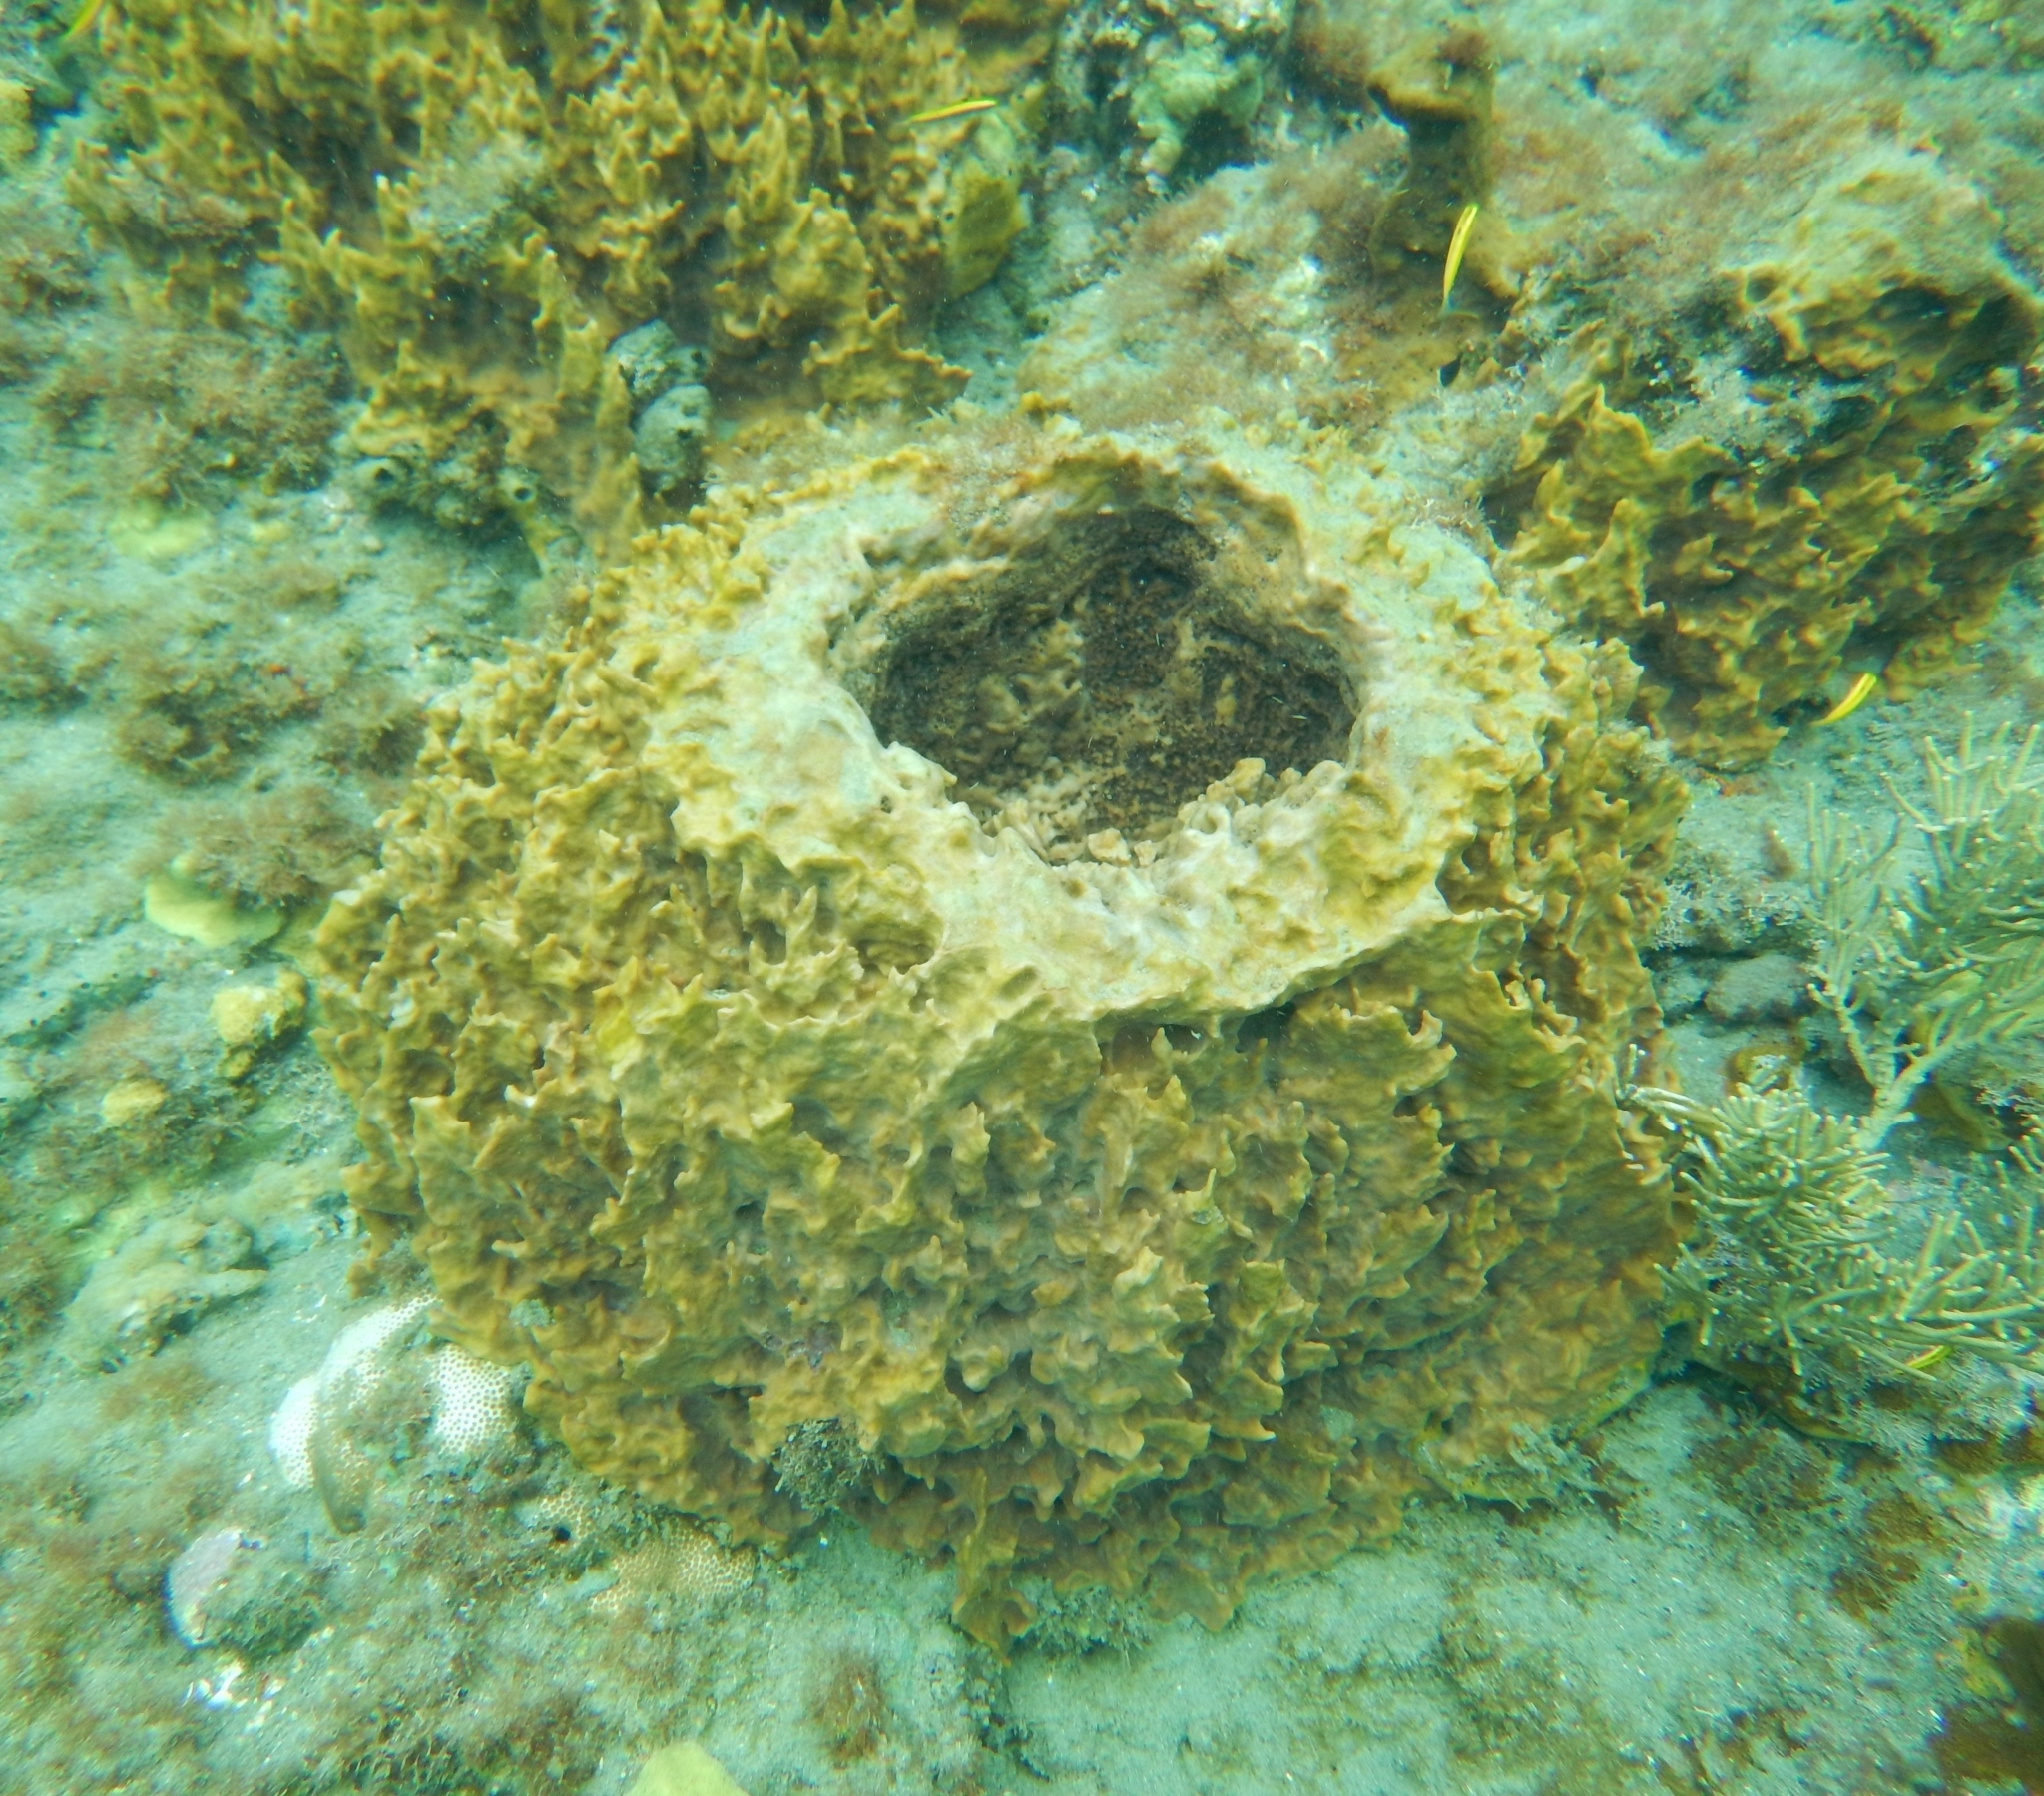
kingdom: Animalia
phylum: Porifera
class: Demospongiae
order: Haplosclerida
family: Petrosiidae
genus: Xestospongia
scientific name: Xestospongia muta
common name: Giant barrel sponge
